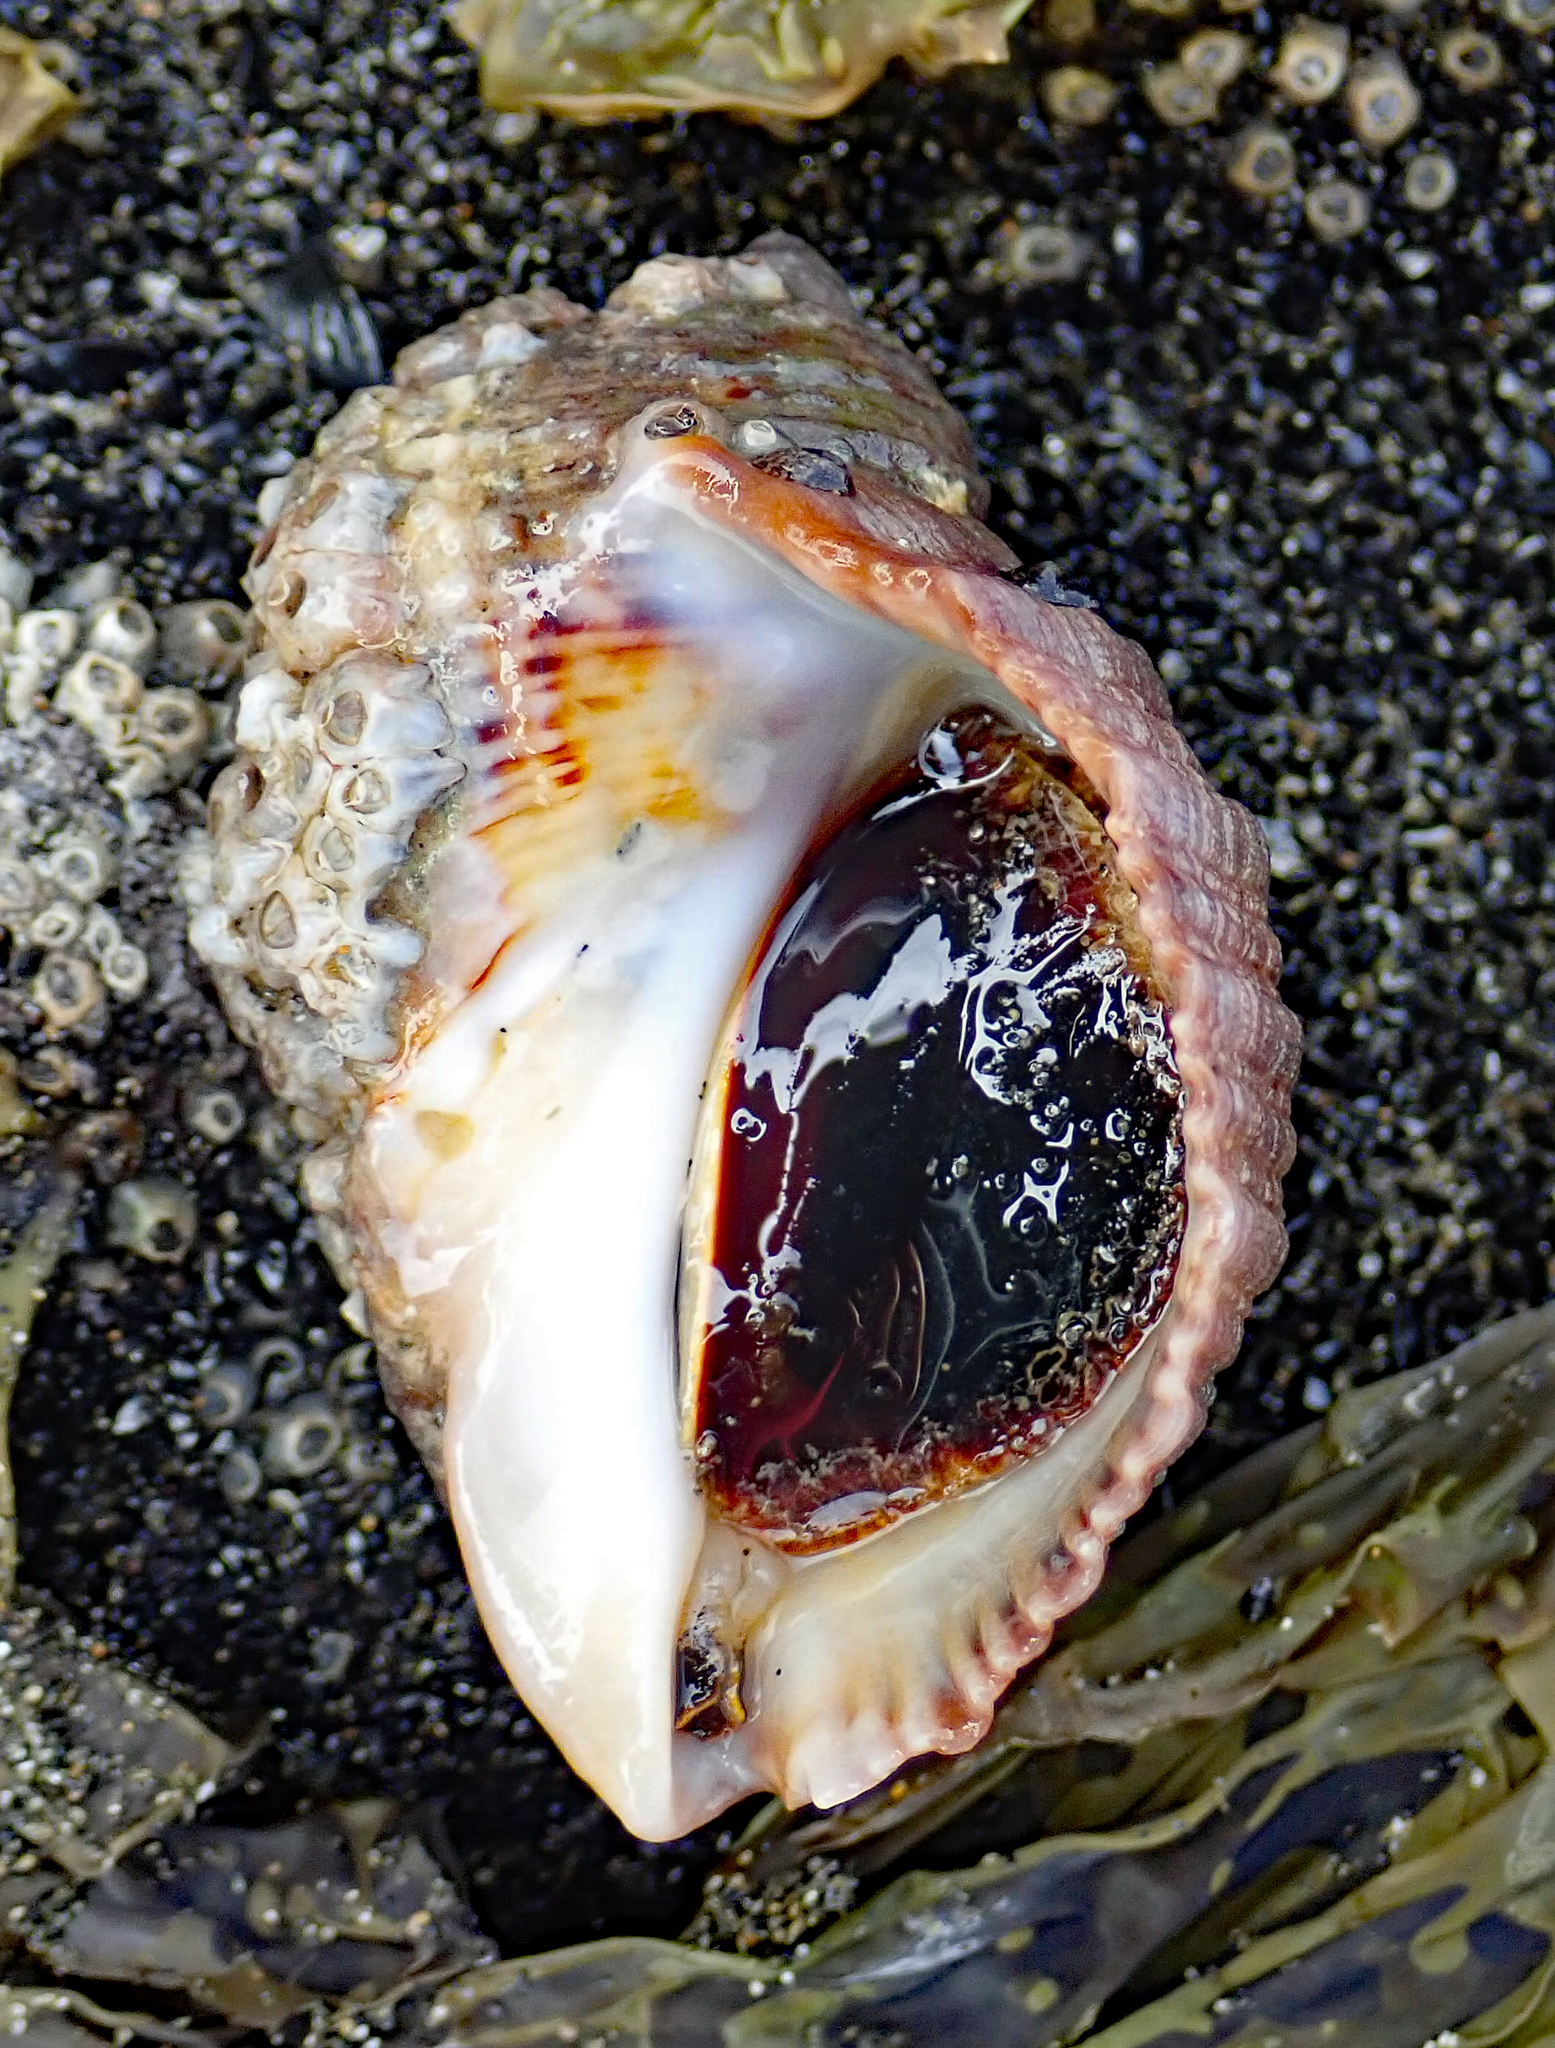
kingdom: Animalia
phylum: Mollusca
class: Gastropoda
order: Neogastropoda
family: Muricidae
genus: Dicathais
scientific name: Dicathais orbita
